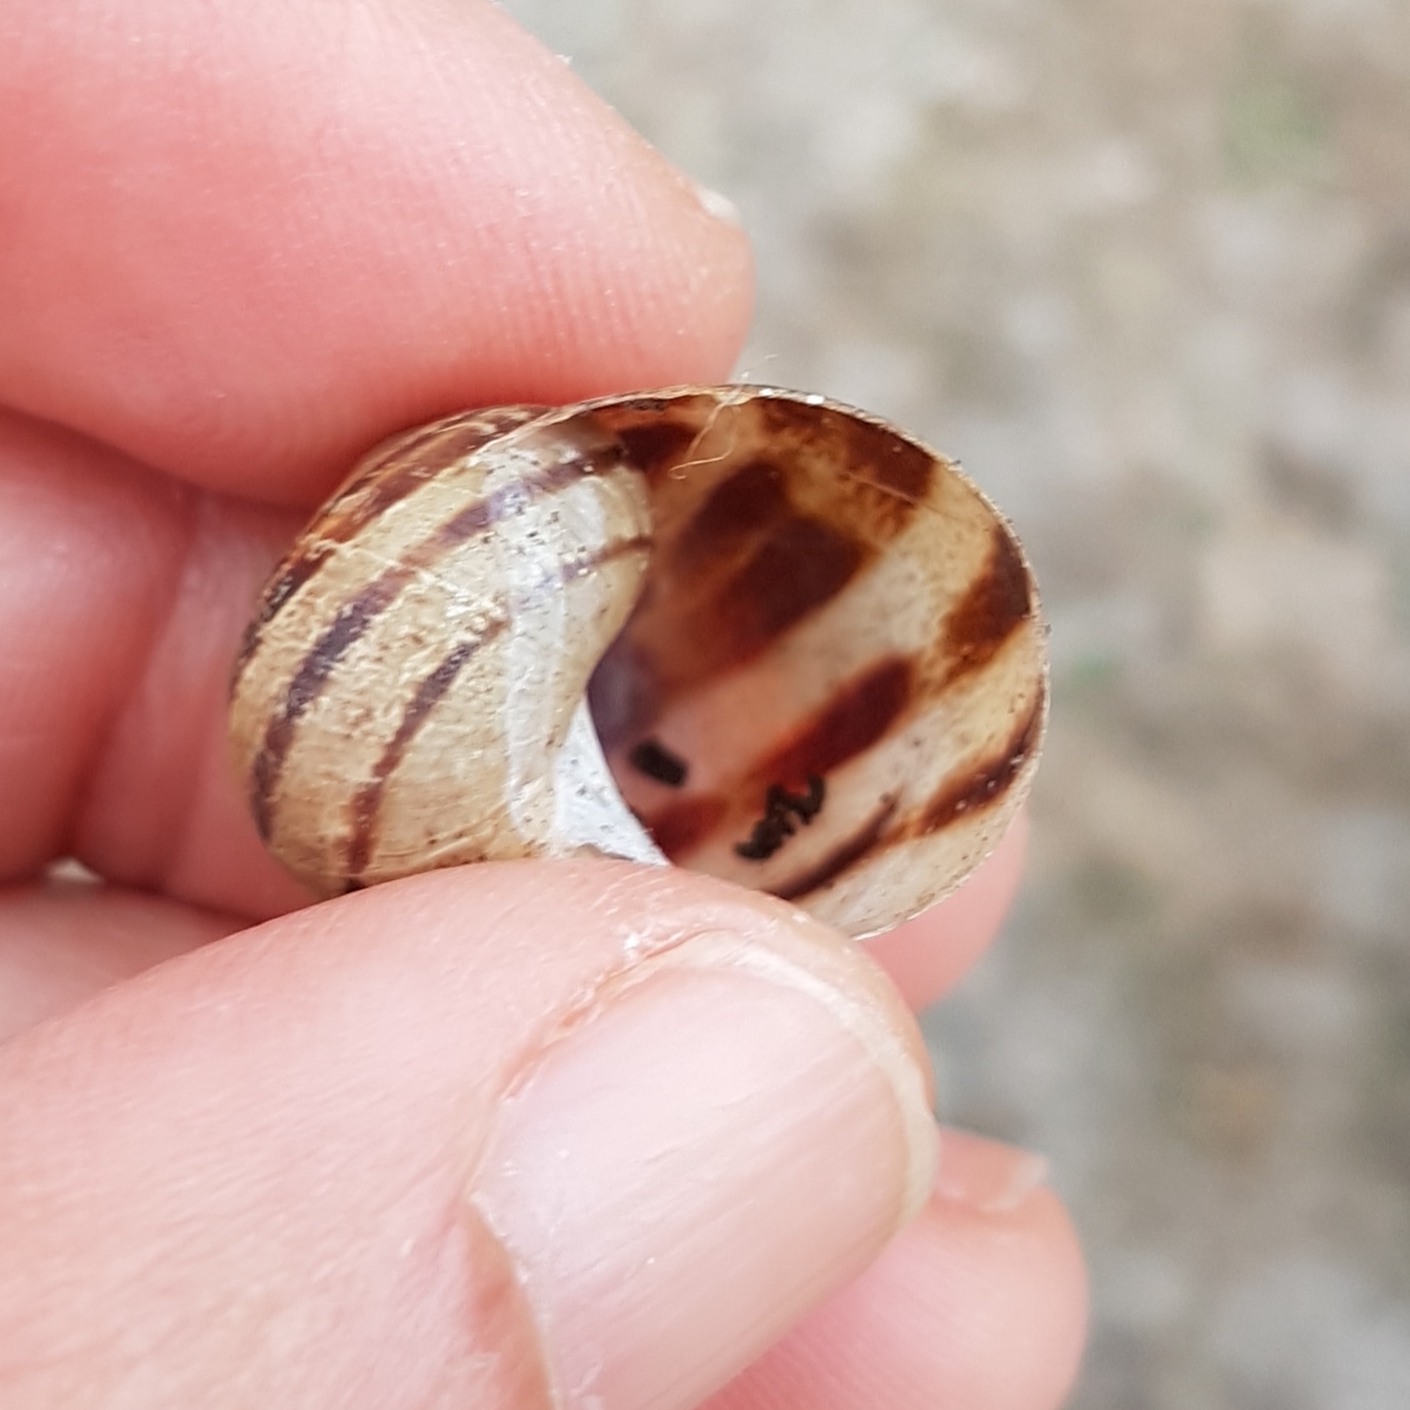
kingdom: Animalia
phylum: Mollusca
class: Gastropoda
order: Stylommatophora
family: Helicidae
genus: Cornu
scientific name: Cornu aspersum
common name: Brown garden snail
